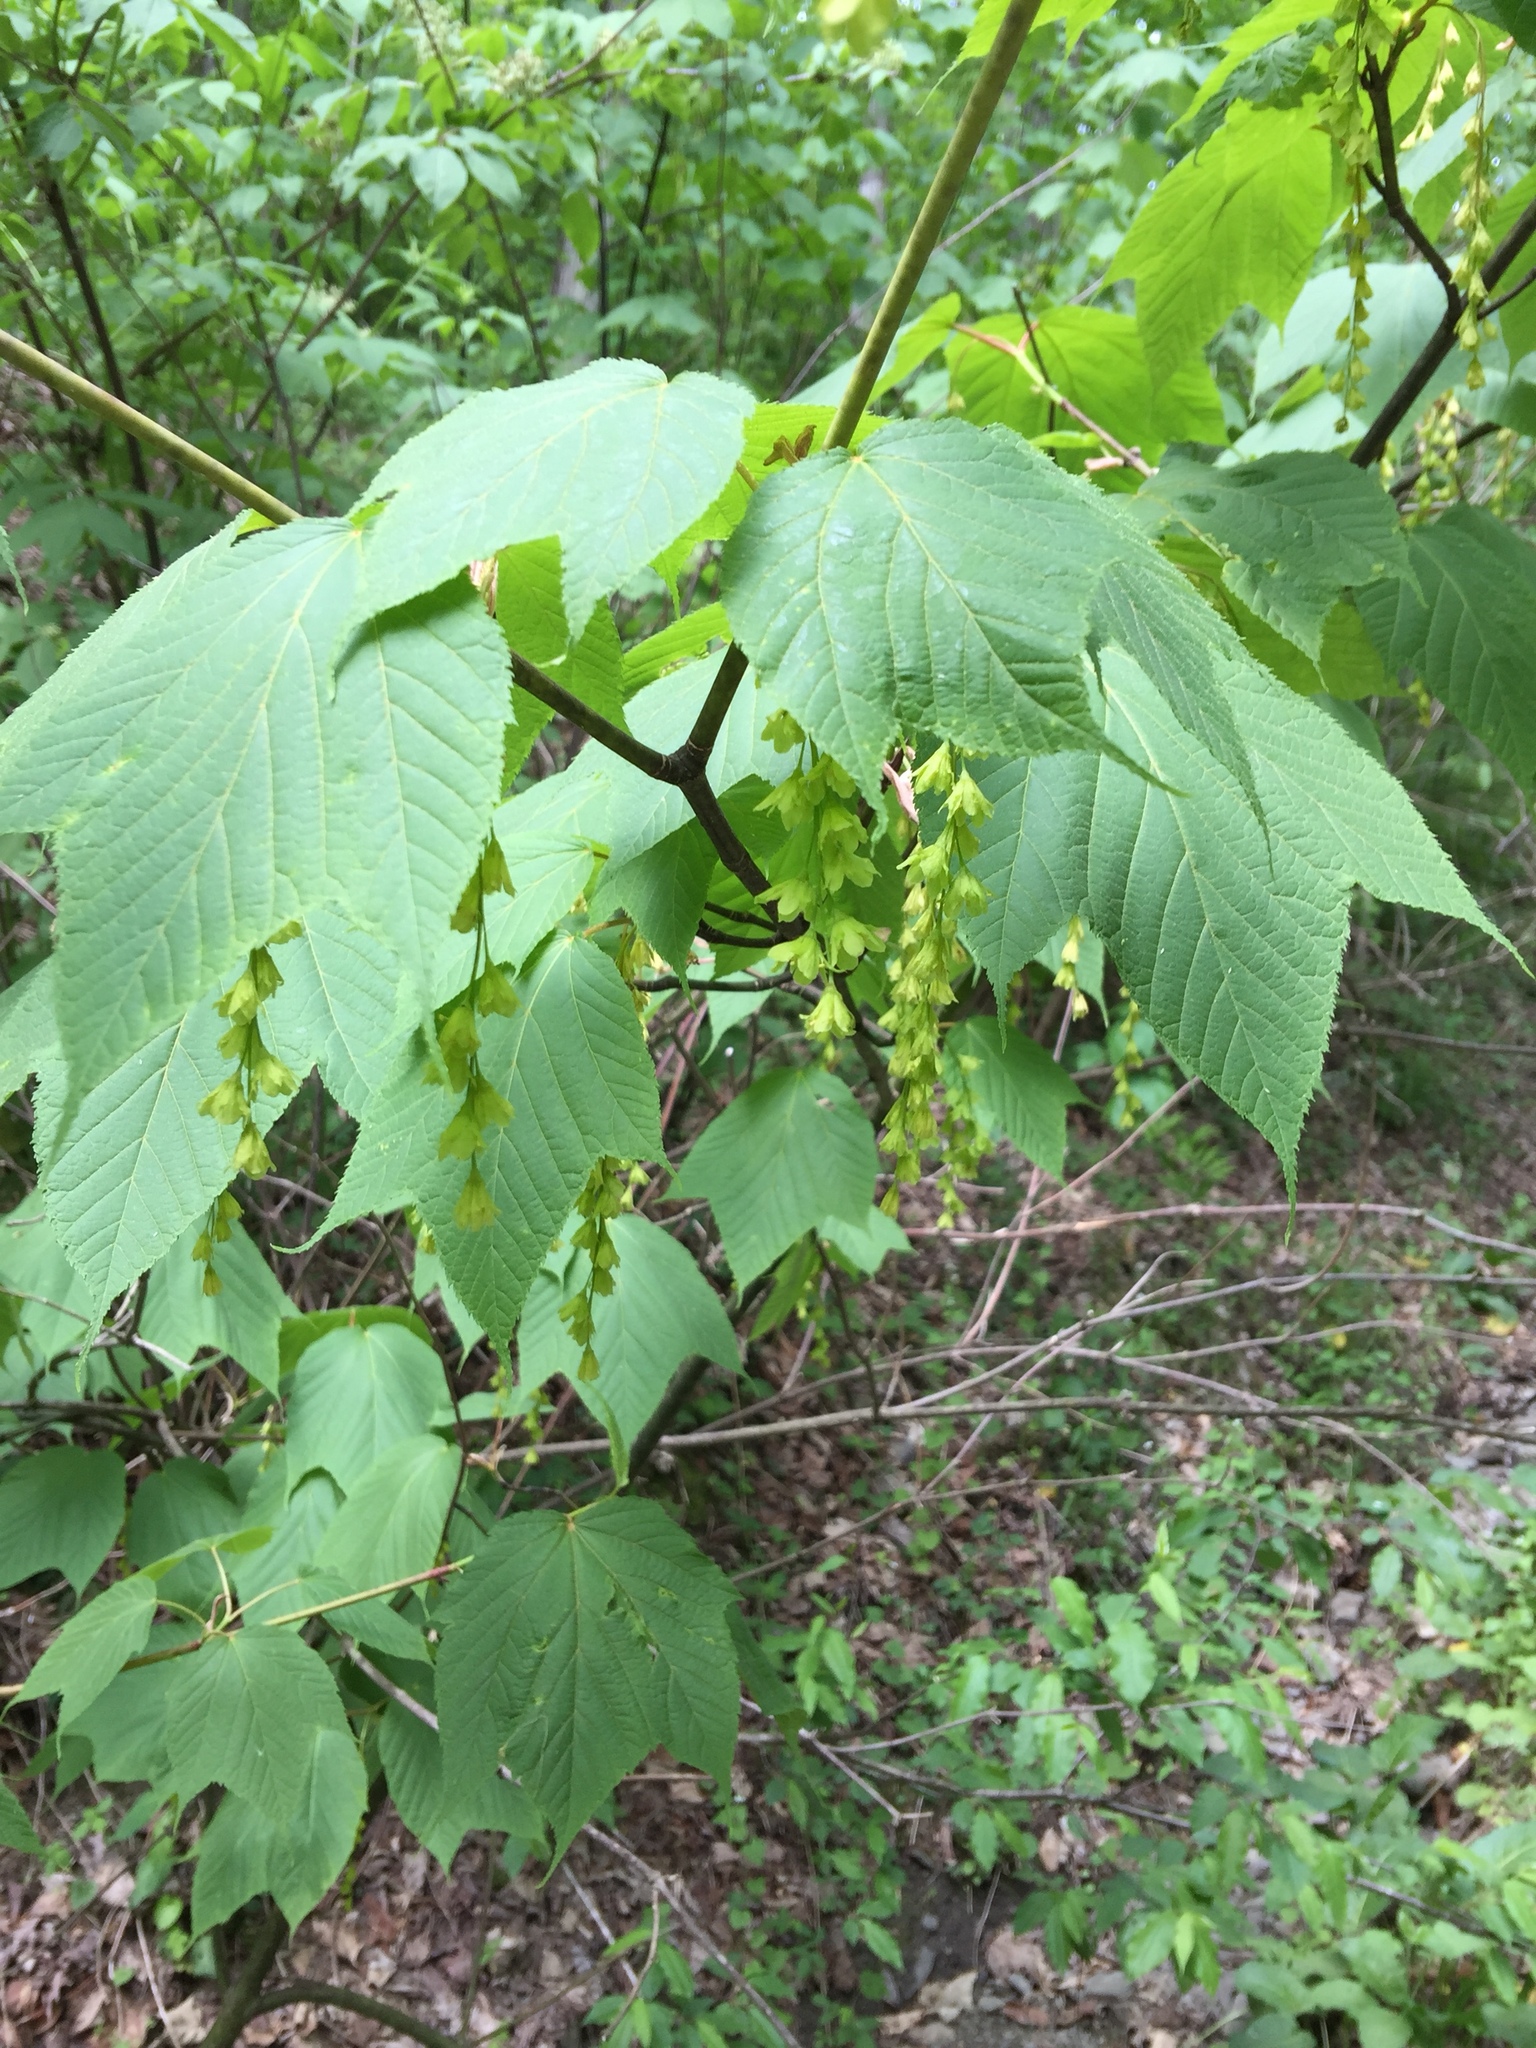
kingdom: Plantae
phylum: Tracheophyta
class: Magnoliopsida
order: Sapindales
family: Sapindaceae
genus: Acer
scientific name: Acer pensylvanicum
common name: Moosewood
